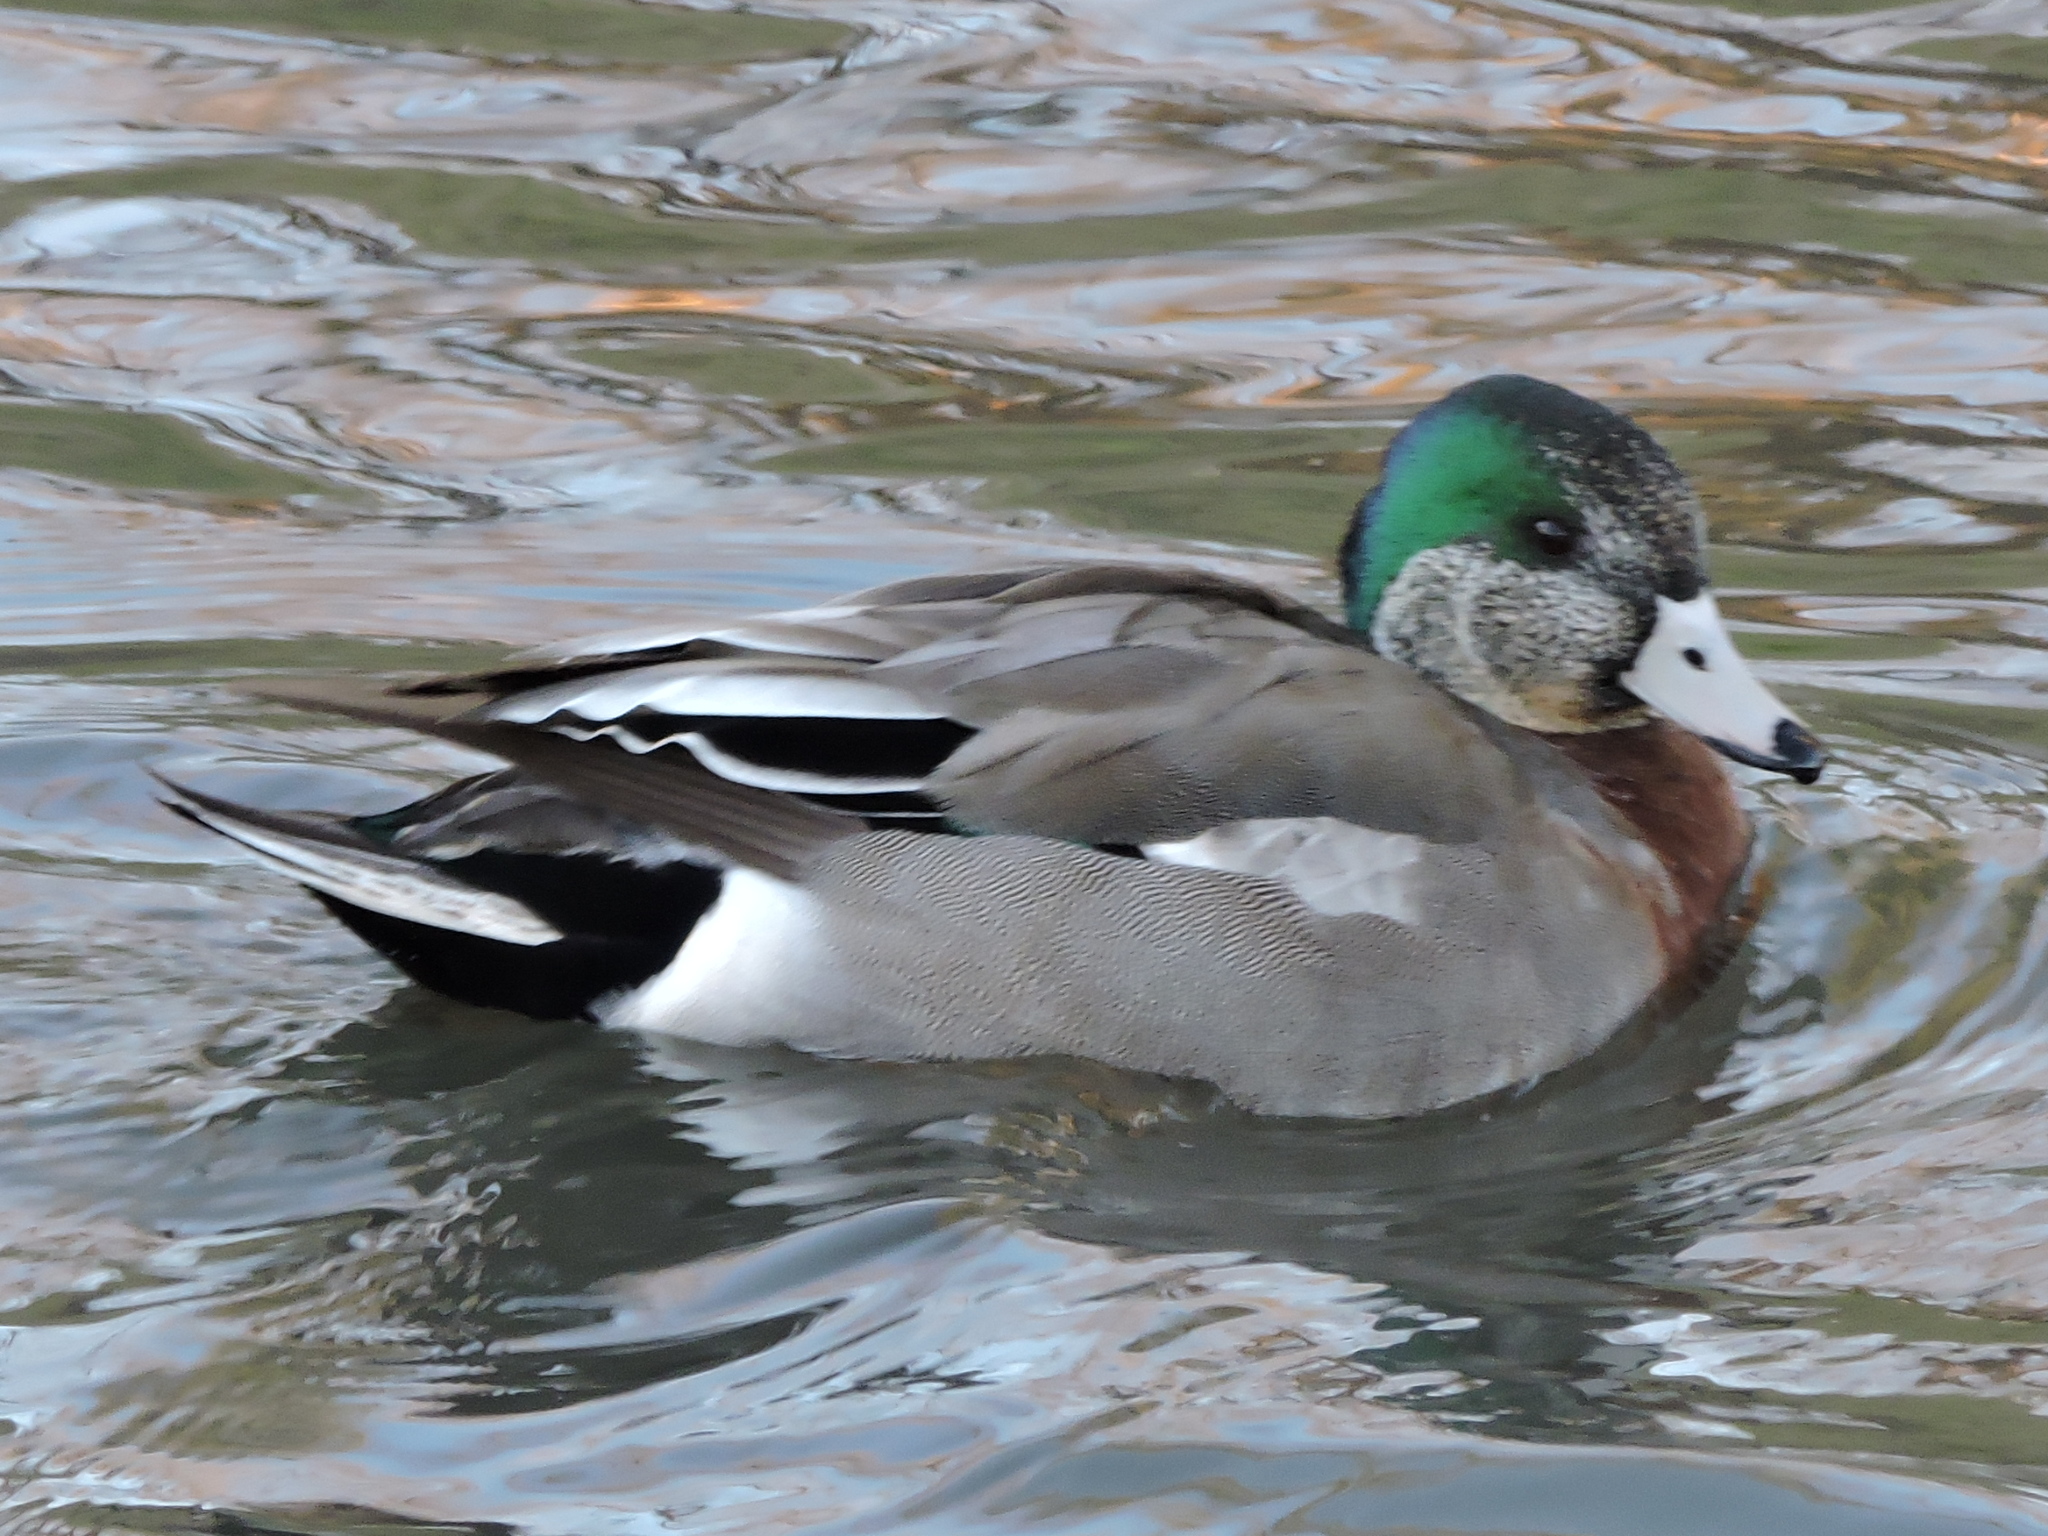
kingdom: Animalia
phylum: Chordata
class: Aves
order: Anseriformes
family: Anatidae
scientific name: Anatidae
